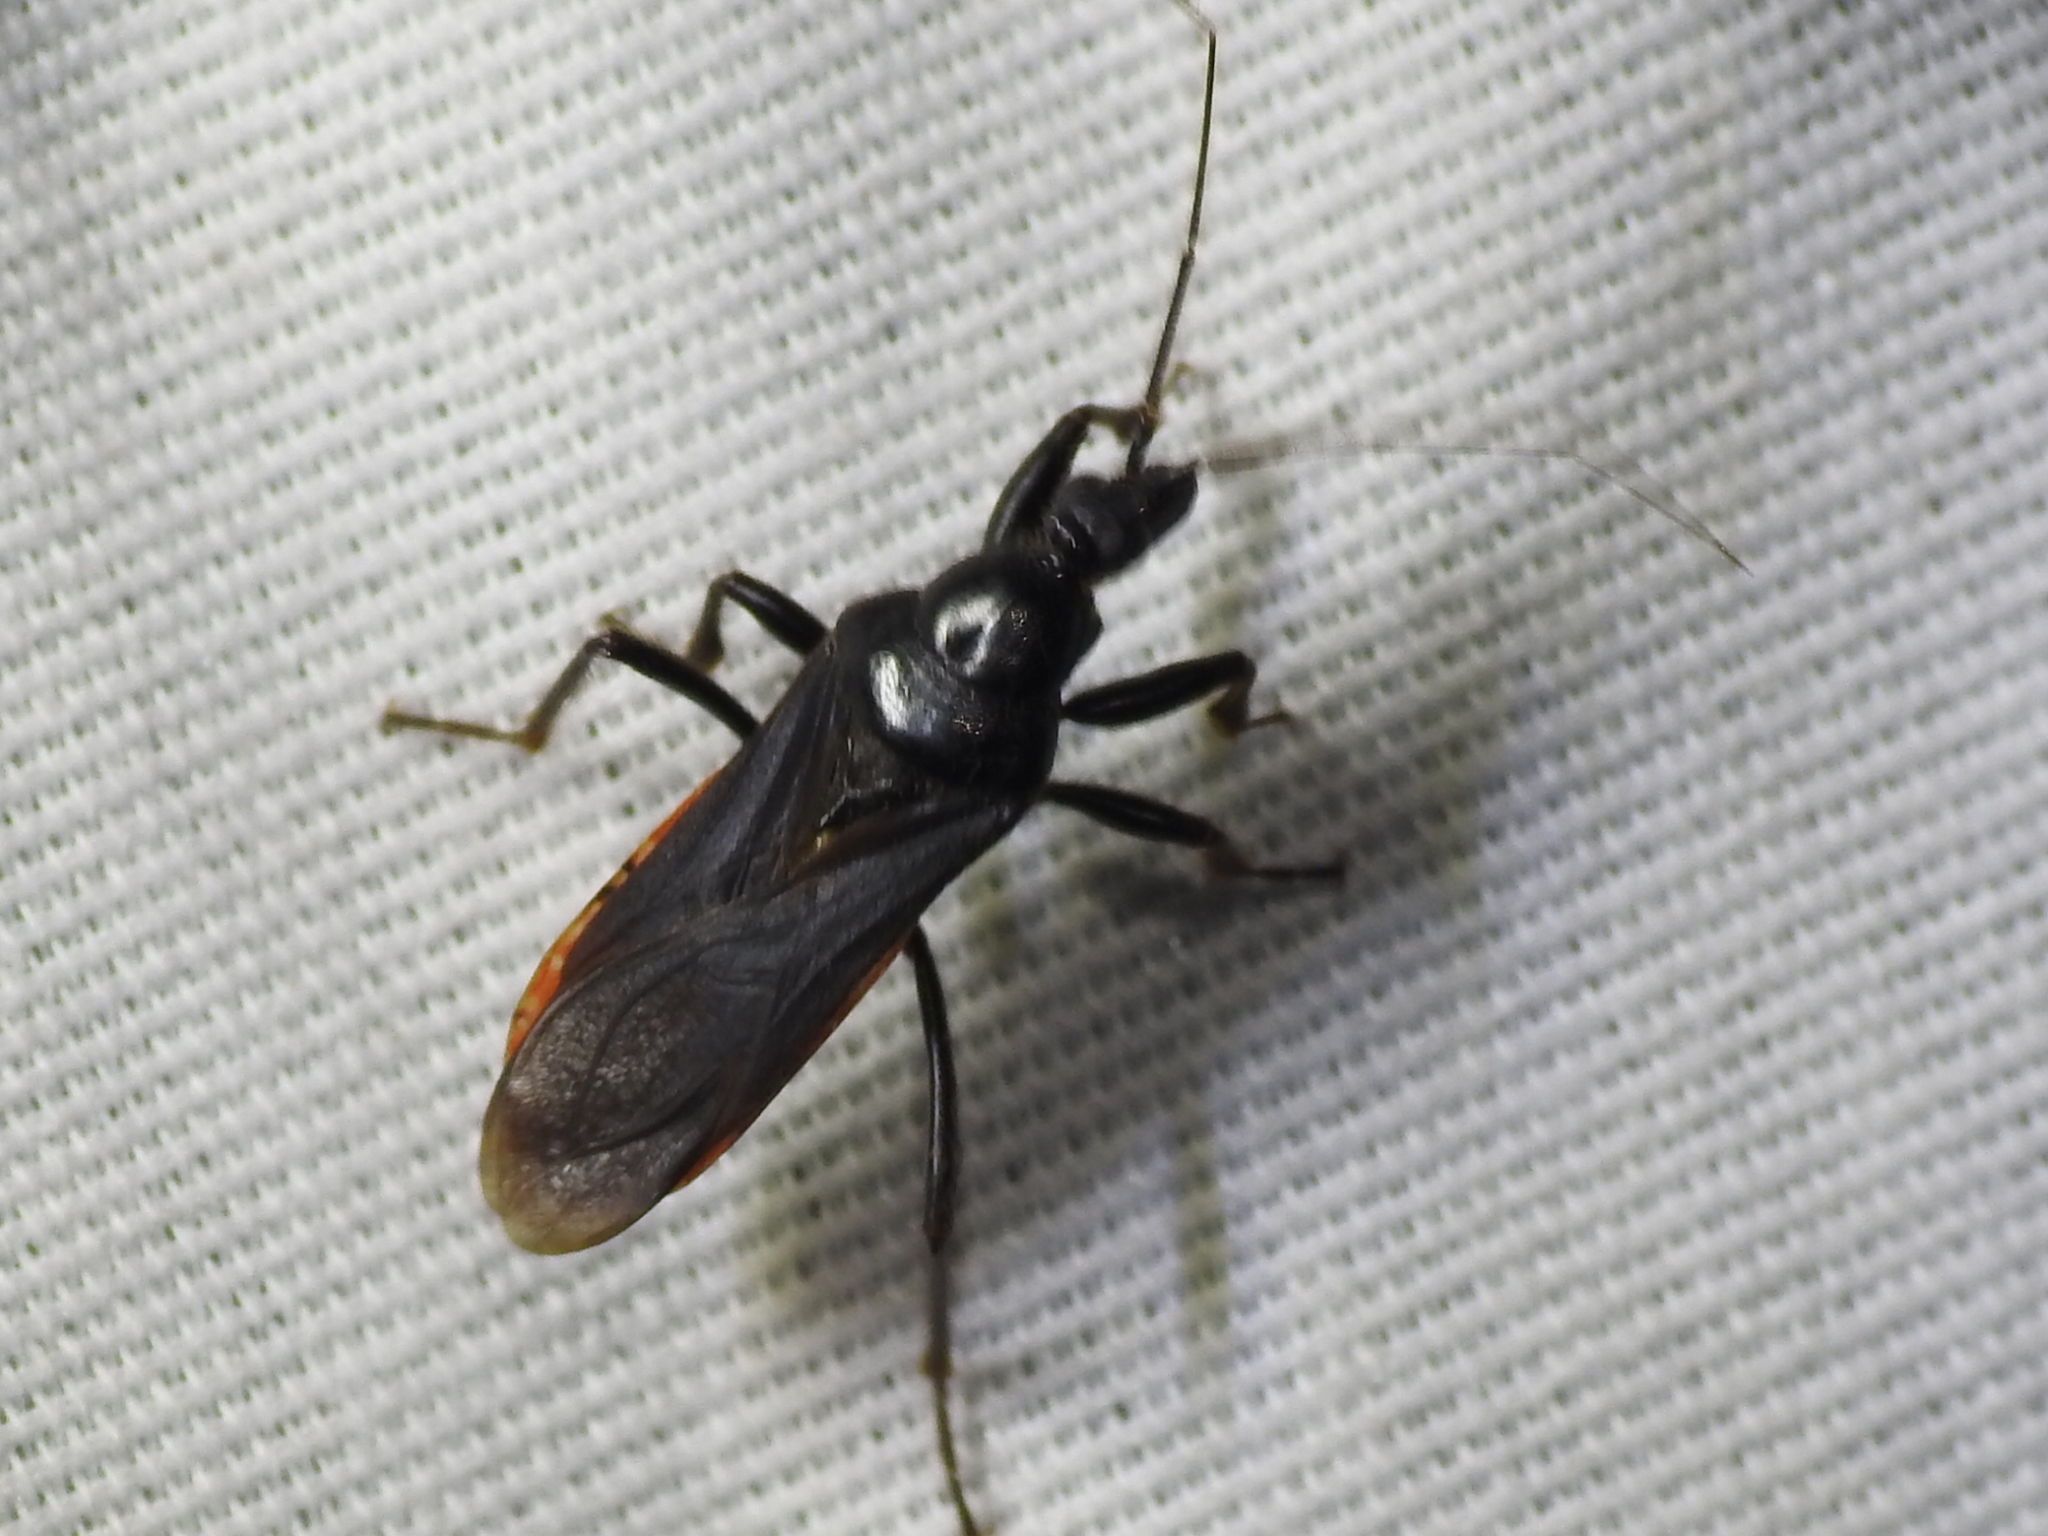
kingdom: Animalia
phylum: Arthropoda
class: Insecta
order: Hemiptera
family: Reduviidae
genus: Melanolestes
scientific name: Melanolestes picipes
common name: Assassin bug
